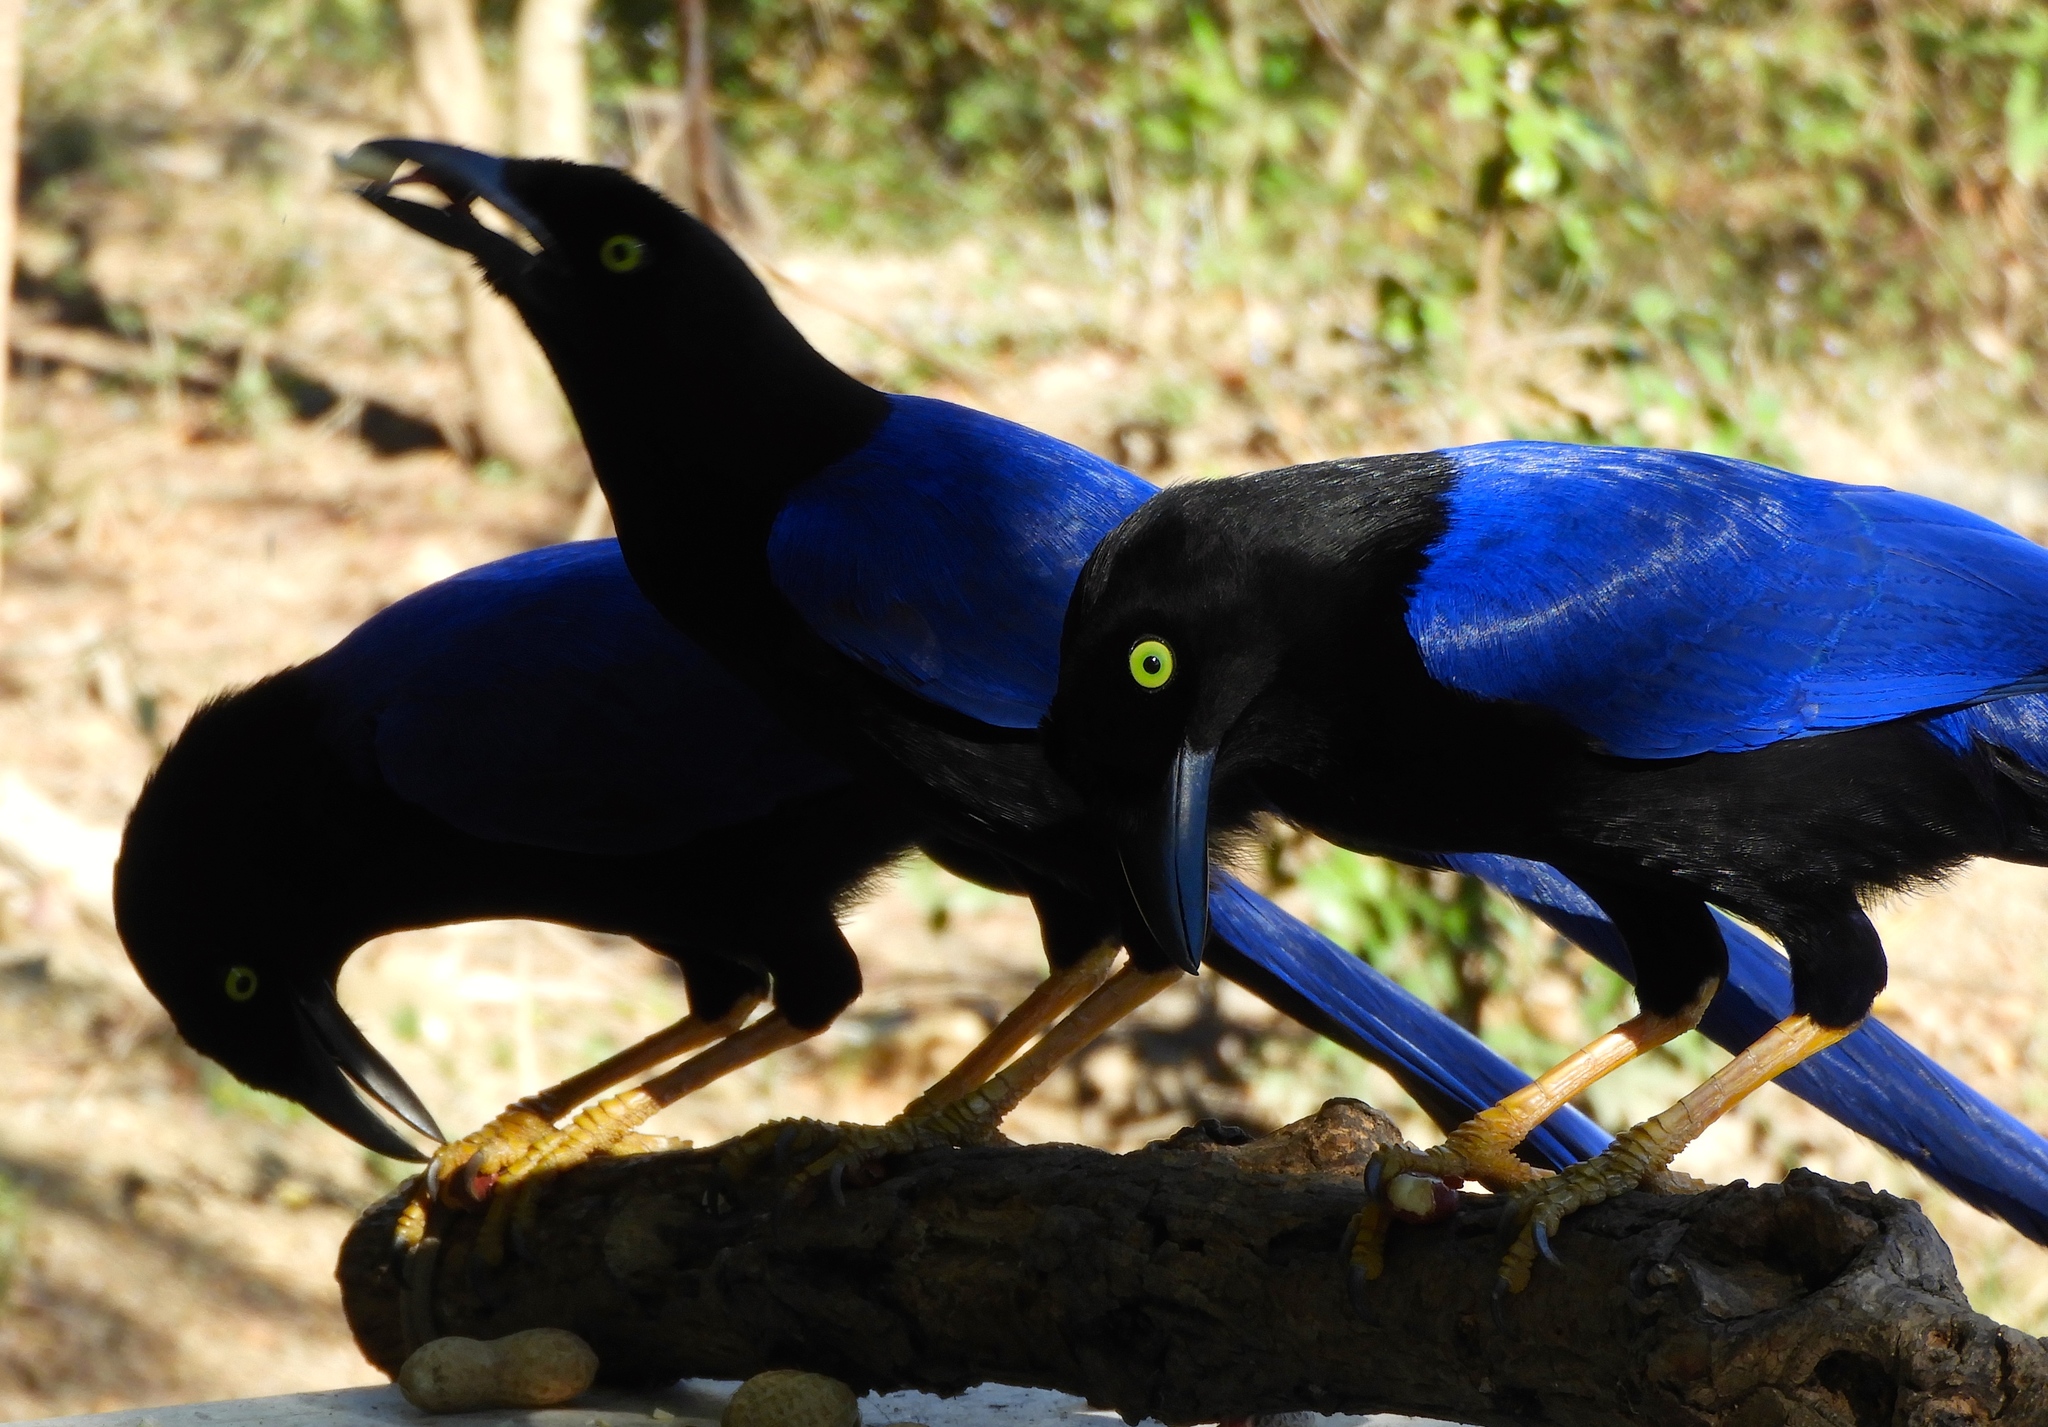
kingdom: Animalia
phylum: Chordata
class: Aves
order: Passeriformes
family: Corvidae
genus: Cyanocorax
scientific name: Cyanocorax beecheii
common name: Purplish-backed jay
